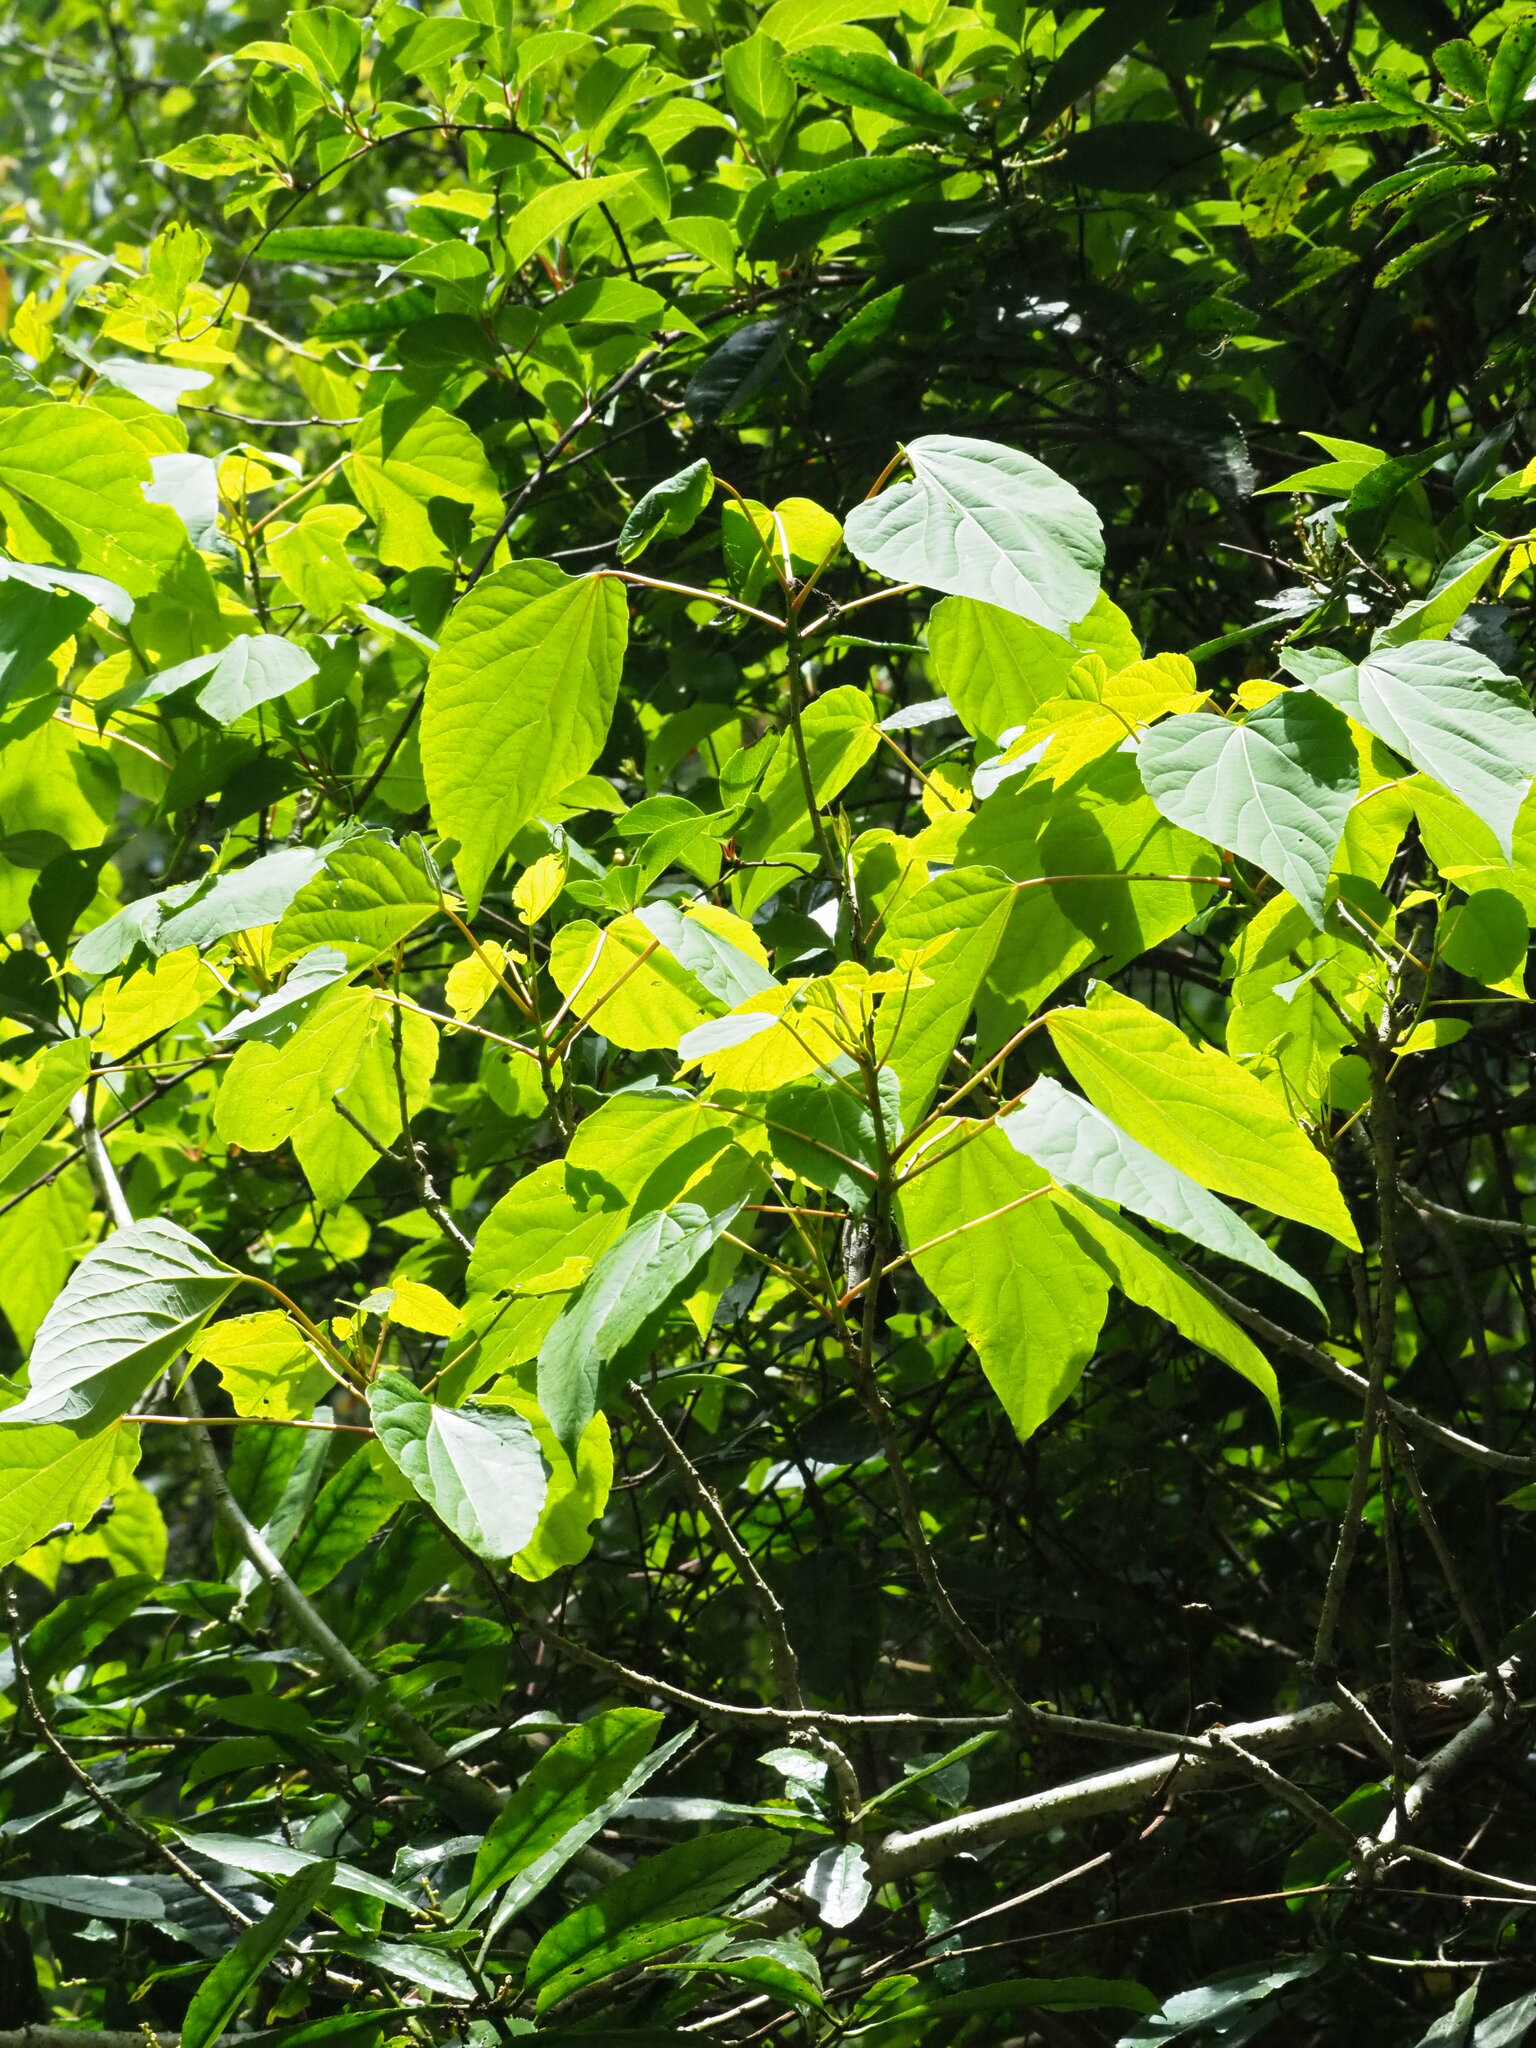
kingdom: Plantae
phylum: Tracheophyta
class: Magnoliopsida
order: Malpighiales
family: Salicaceae
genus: Idesia
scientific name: Idesia polycarpa
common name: Idesia tree
